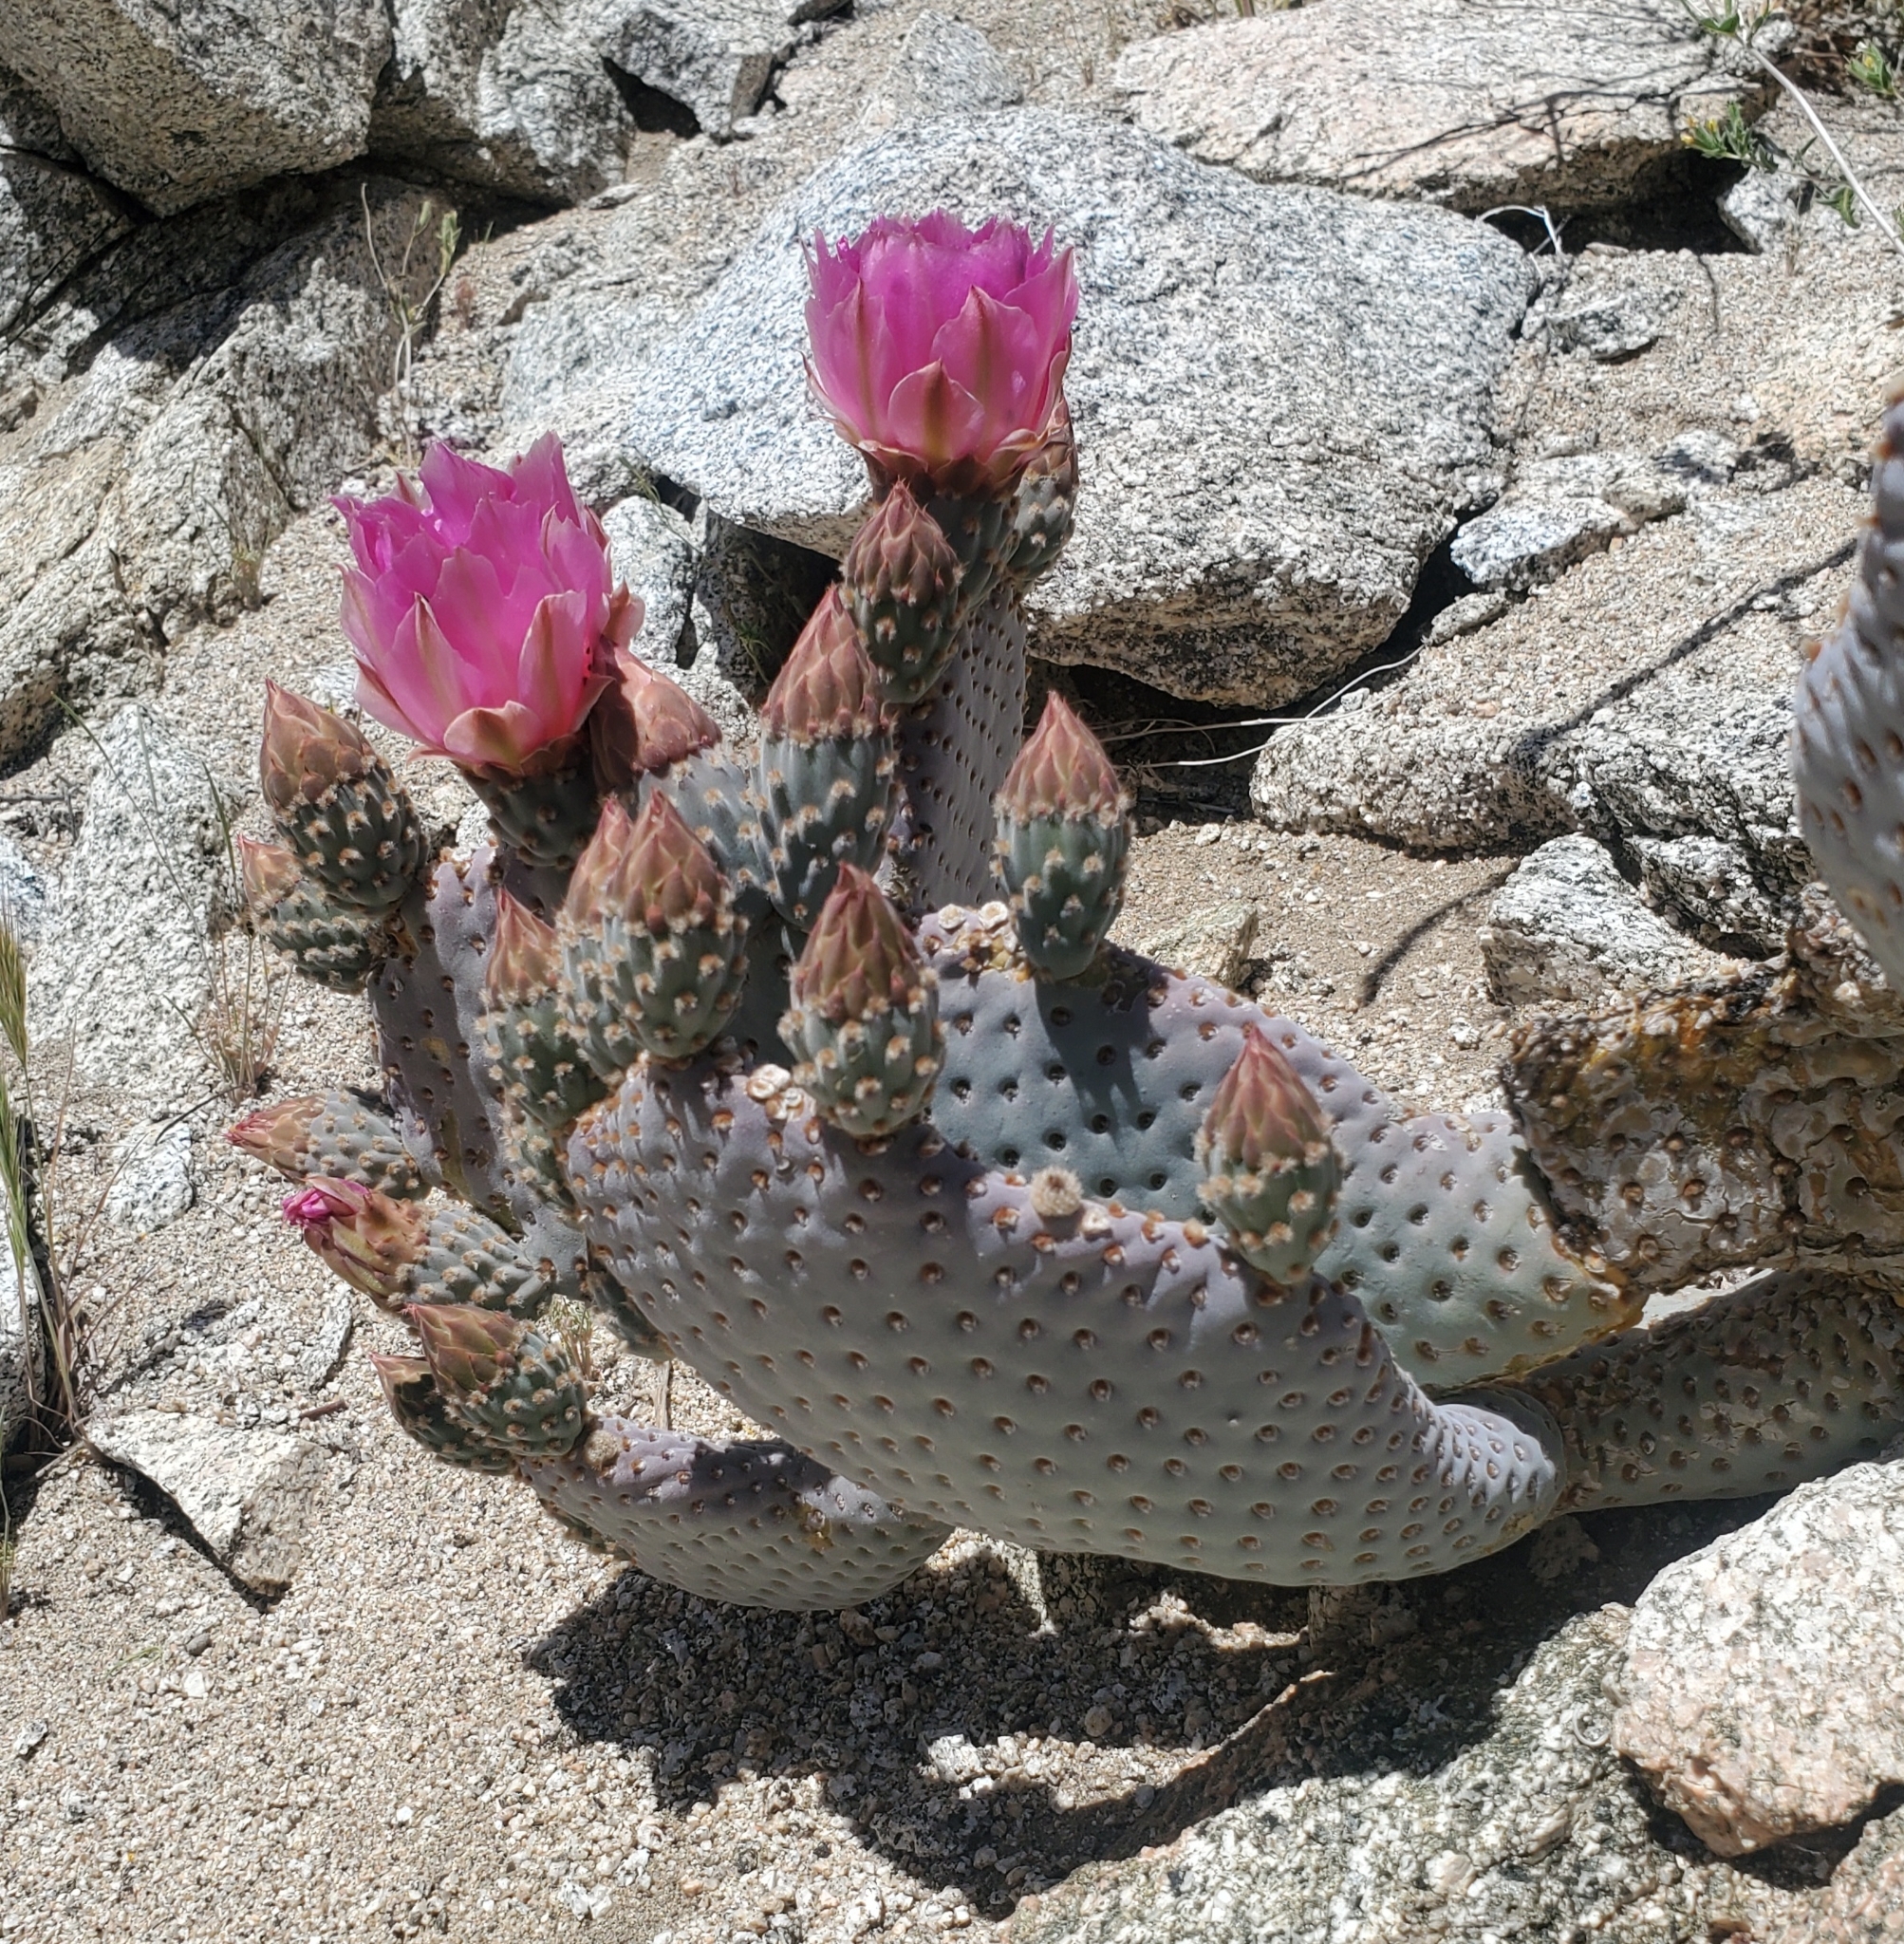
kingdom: Plantae
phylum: Tracheophyta
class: Magnoliopsida
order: Caryophyllales
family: Cactaceae
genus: Opuntia
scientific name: Opuntia basilaris
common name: Beavertail prickly-pear
